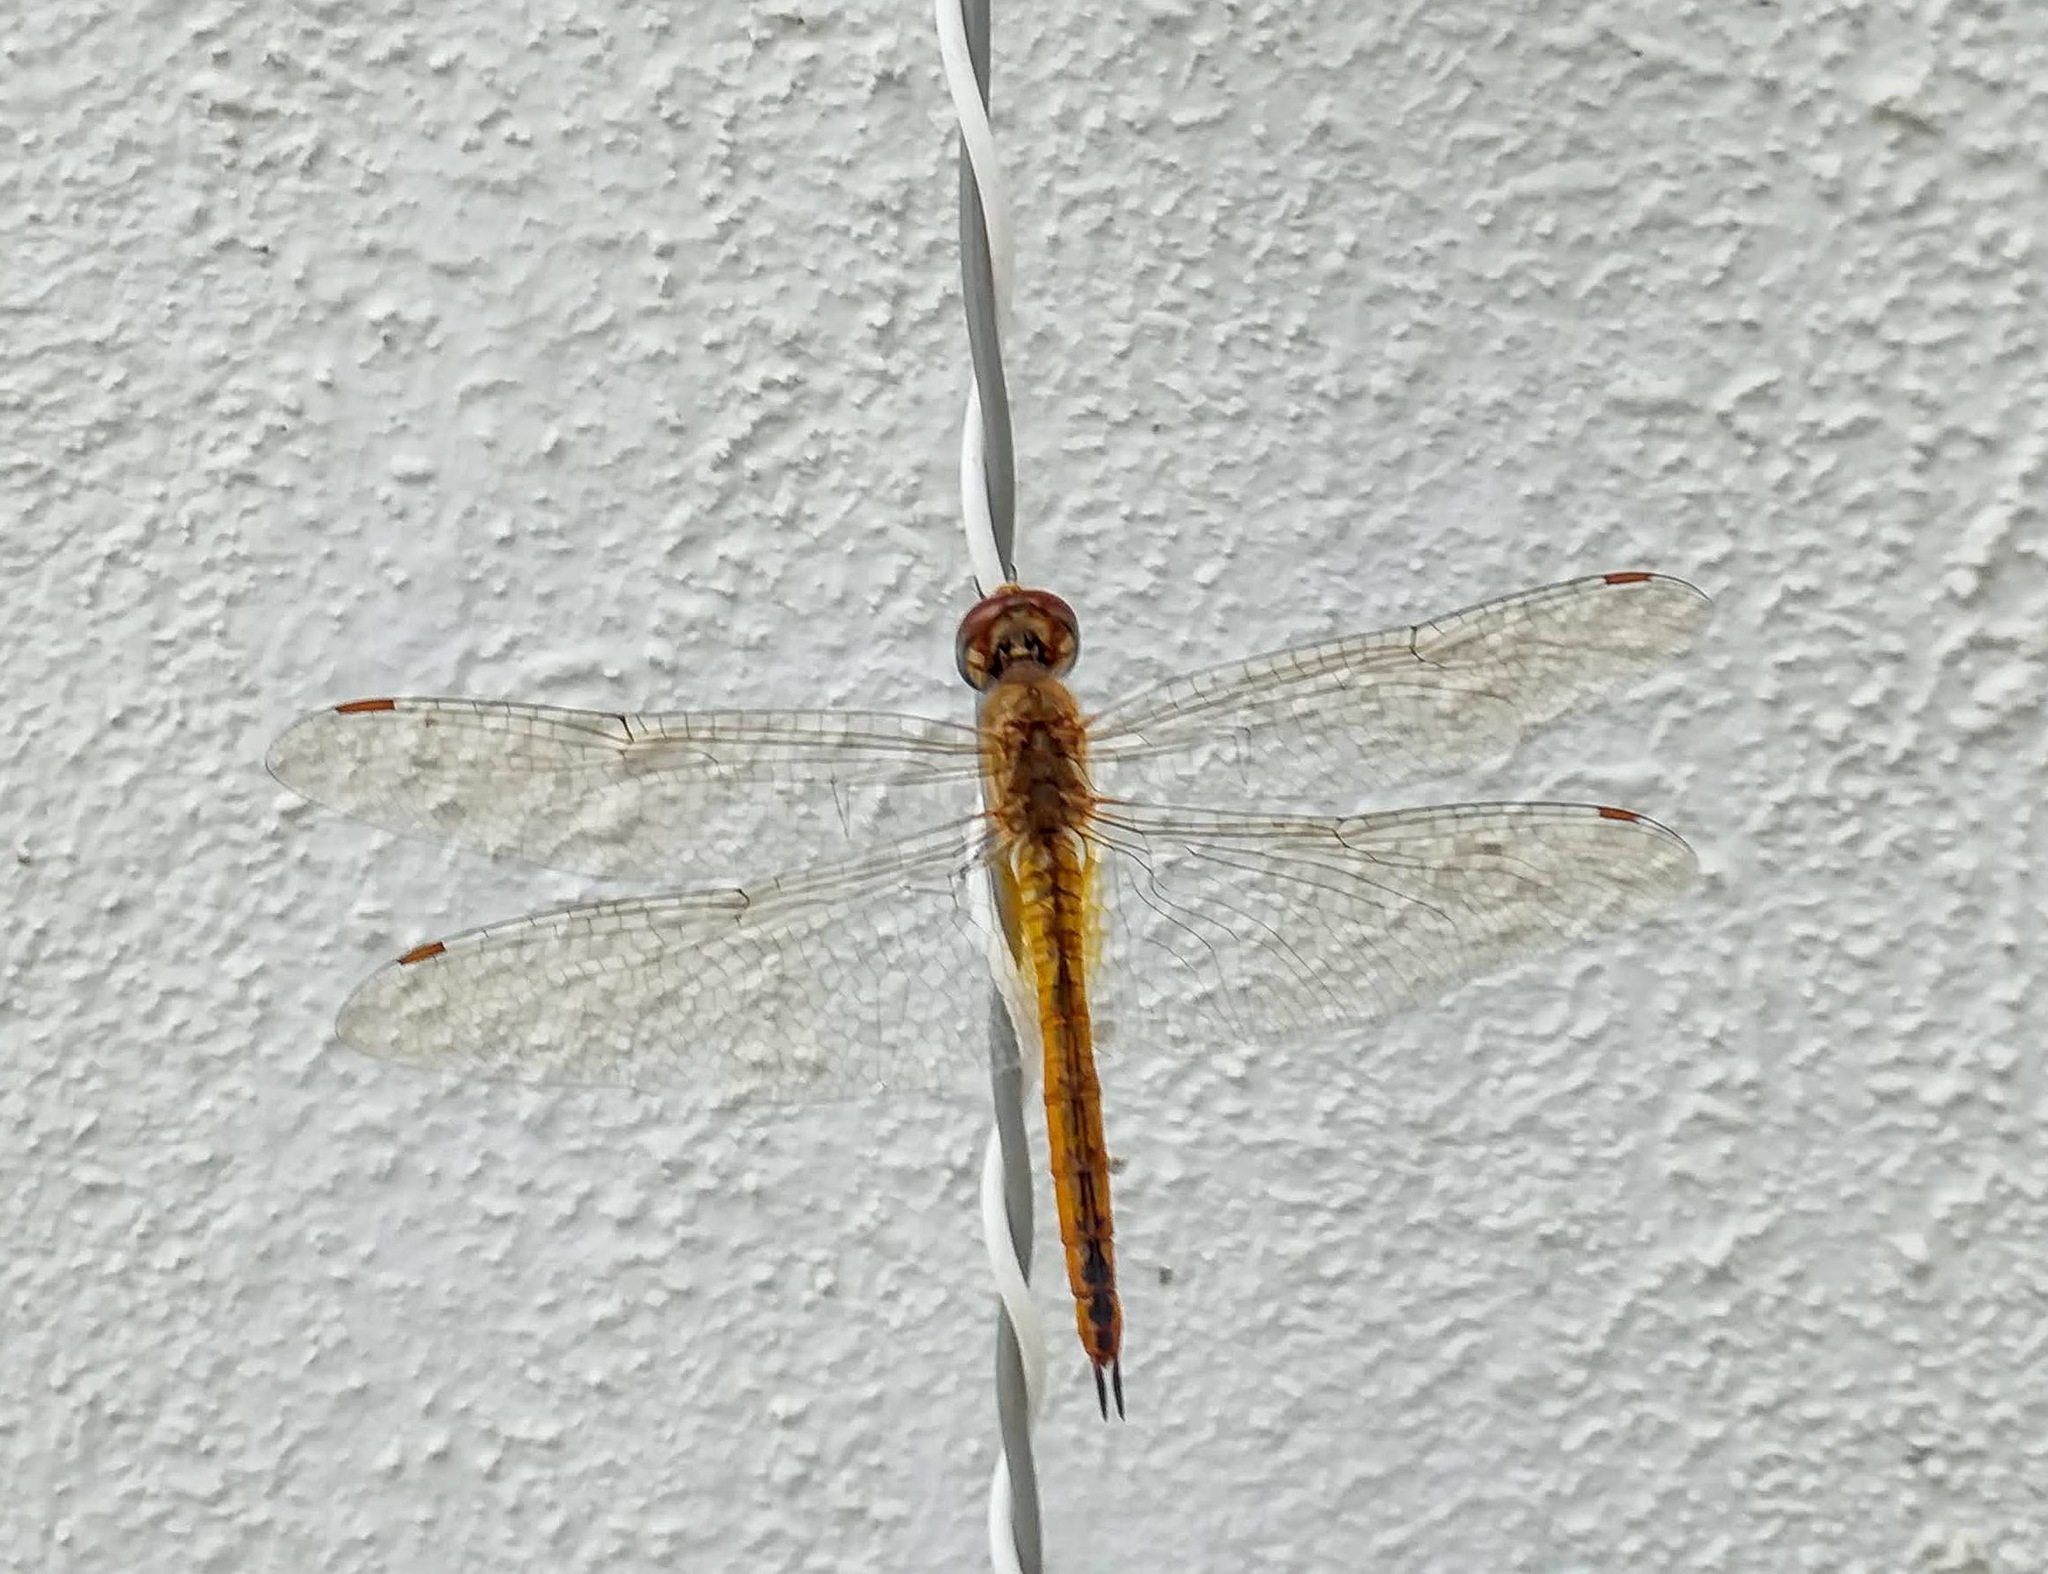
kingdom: Animalia
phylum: Arthropoda
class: Insecta
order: Odonata
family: Libellulidae
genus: Pantala
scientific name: Pantala flavescens
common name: Wandering glider
